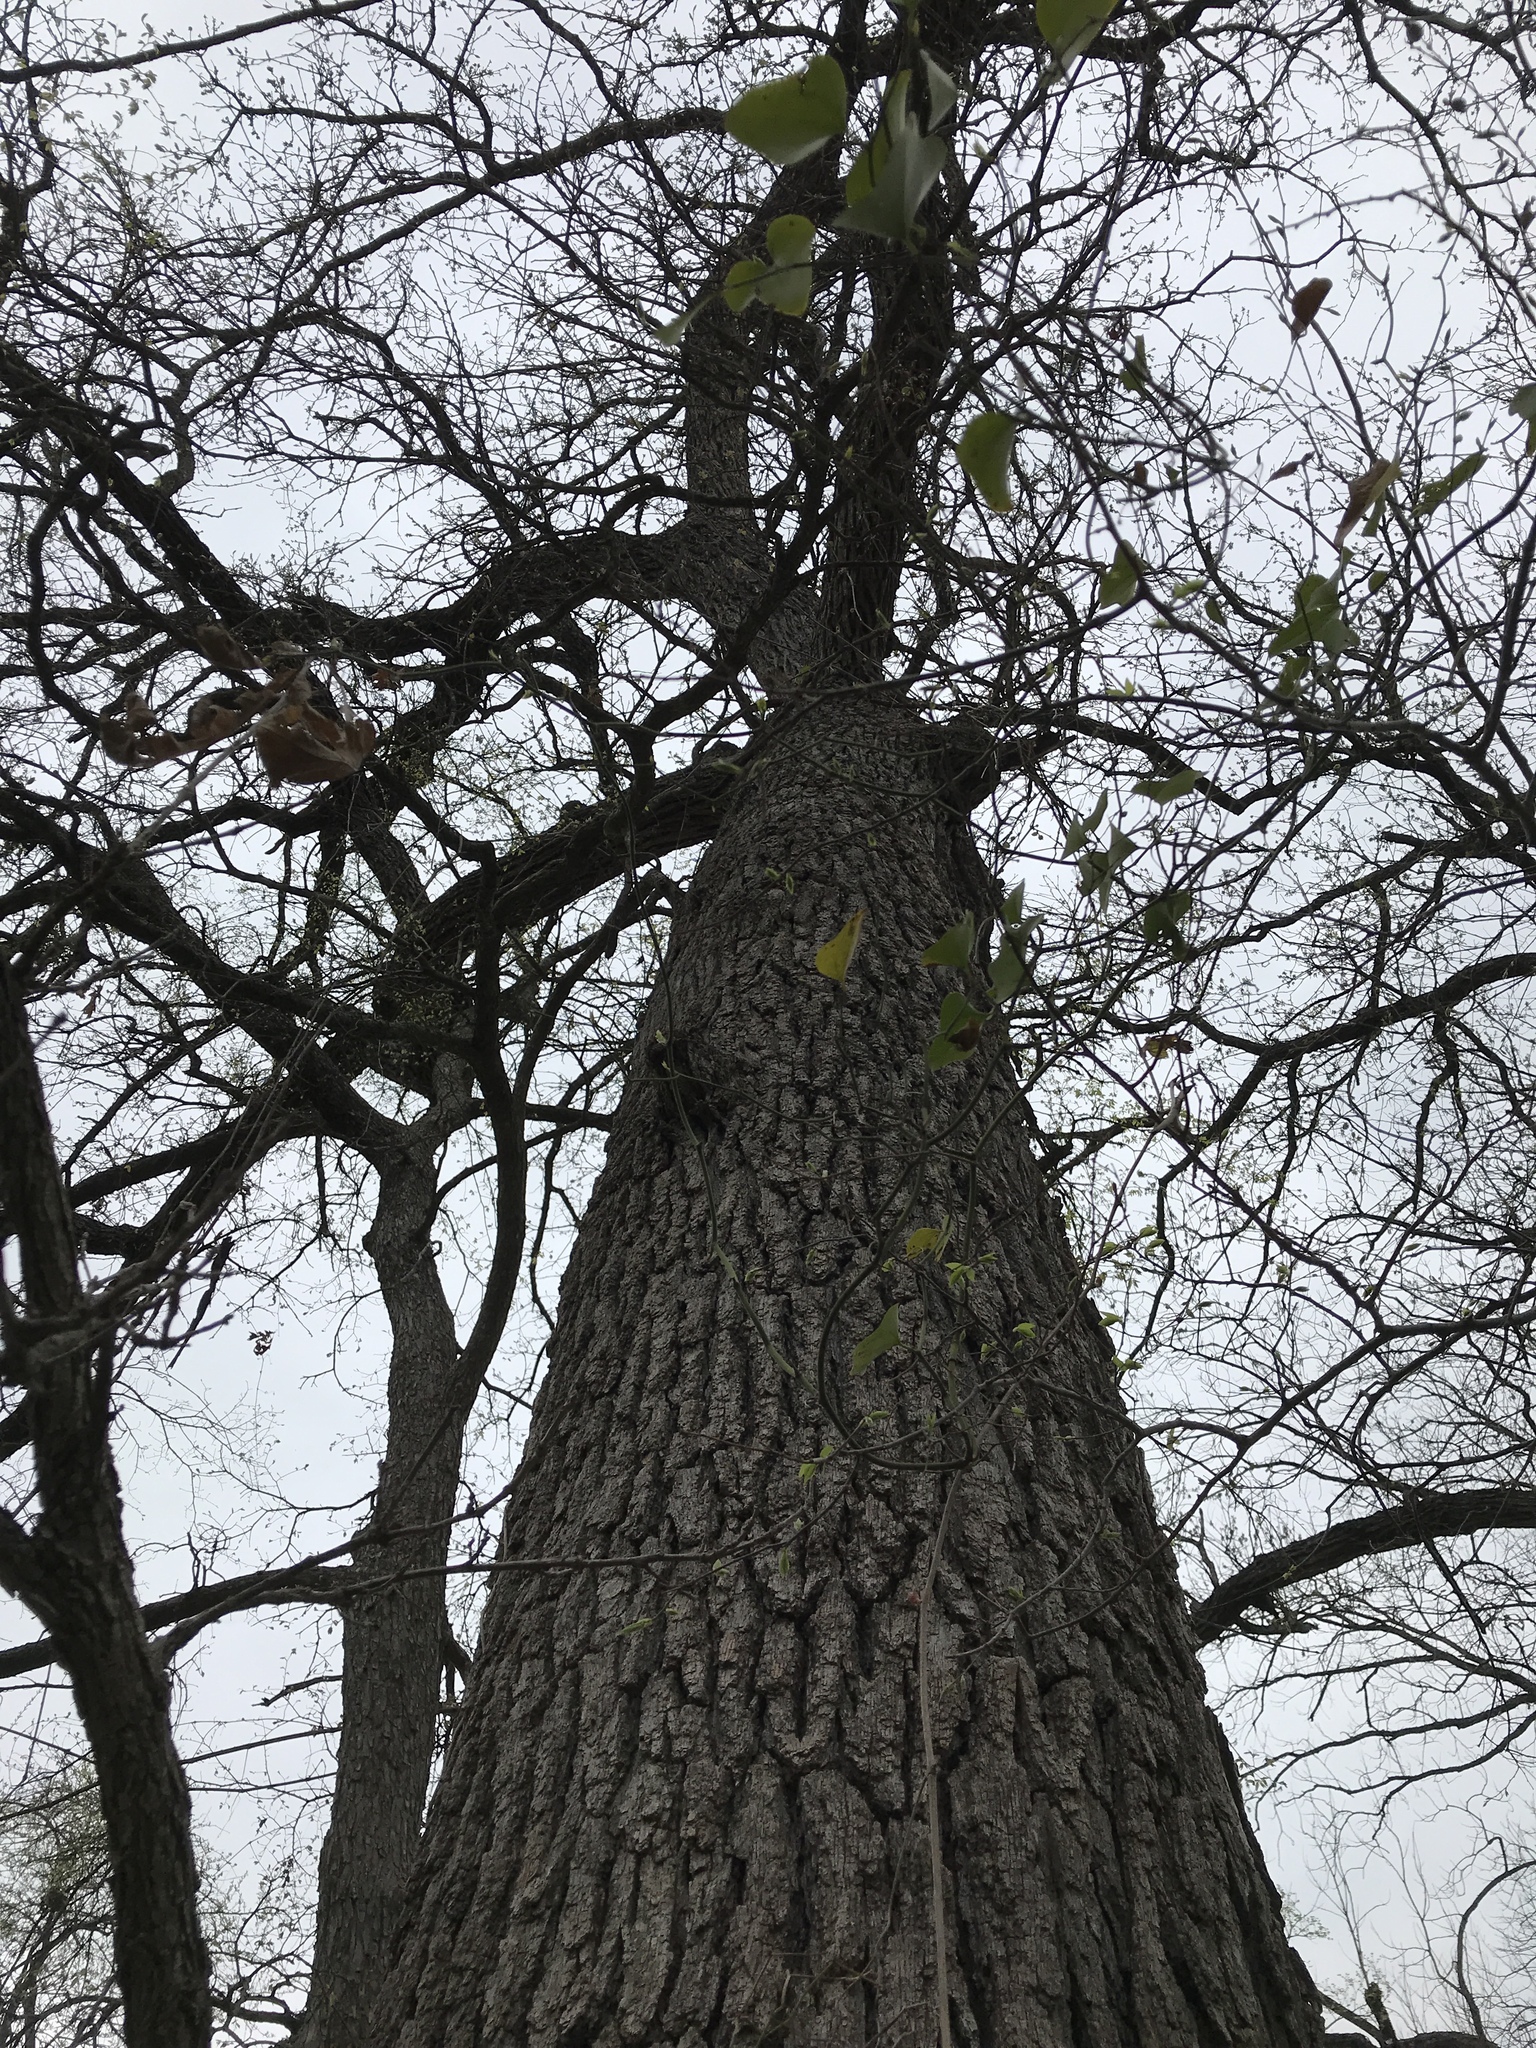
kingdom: Plantae
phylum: Tracheophyta
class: Magnoliopsida
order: Fagales
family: Fagaceae
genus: Quercus
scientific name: Quercus macrocarpa
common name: Bur oak
